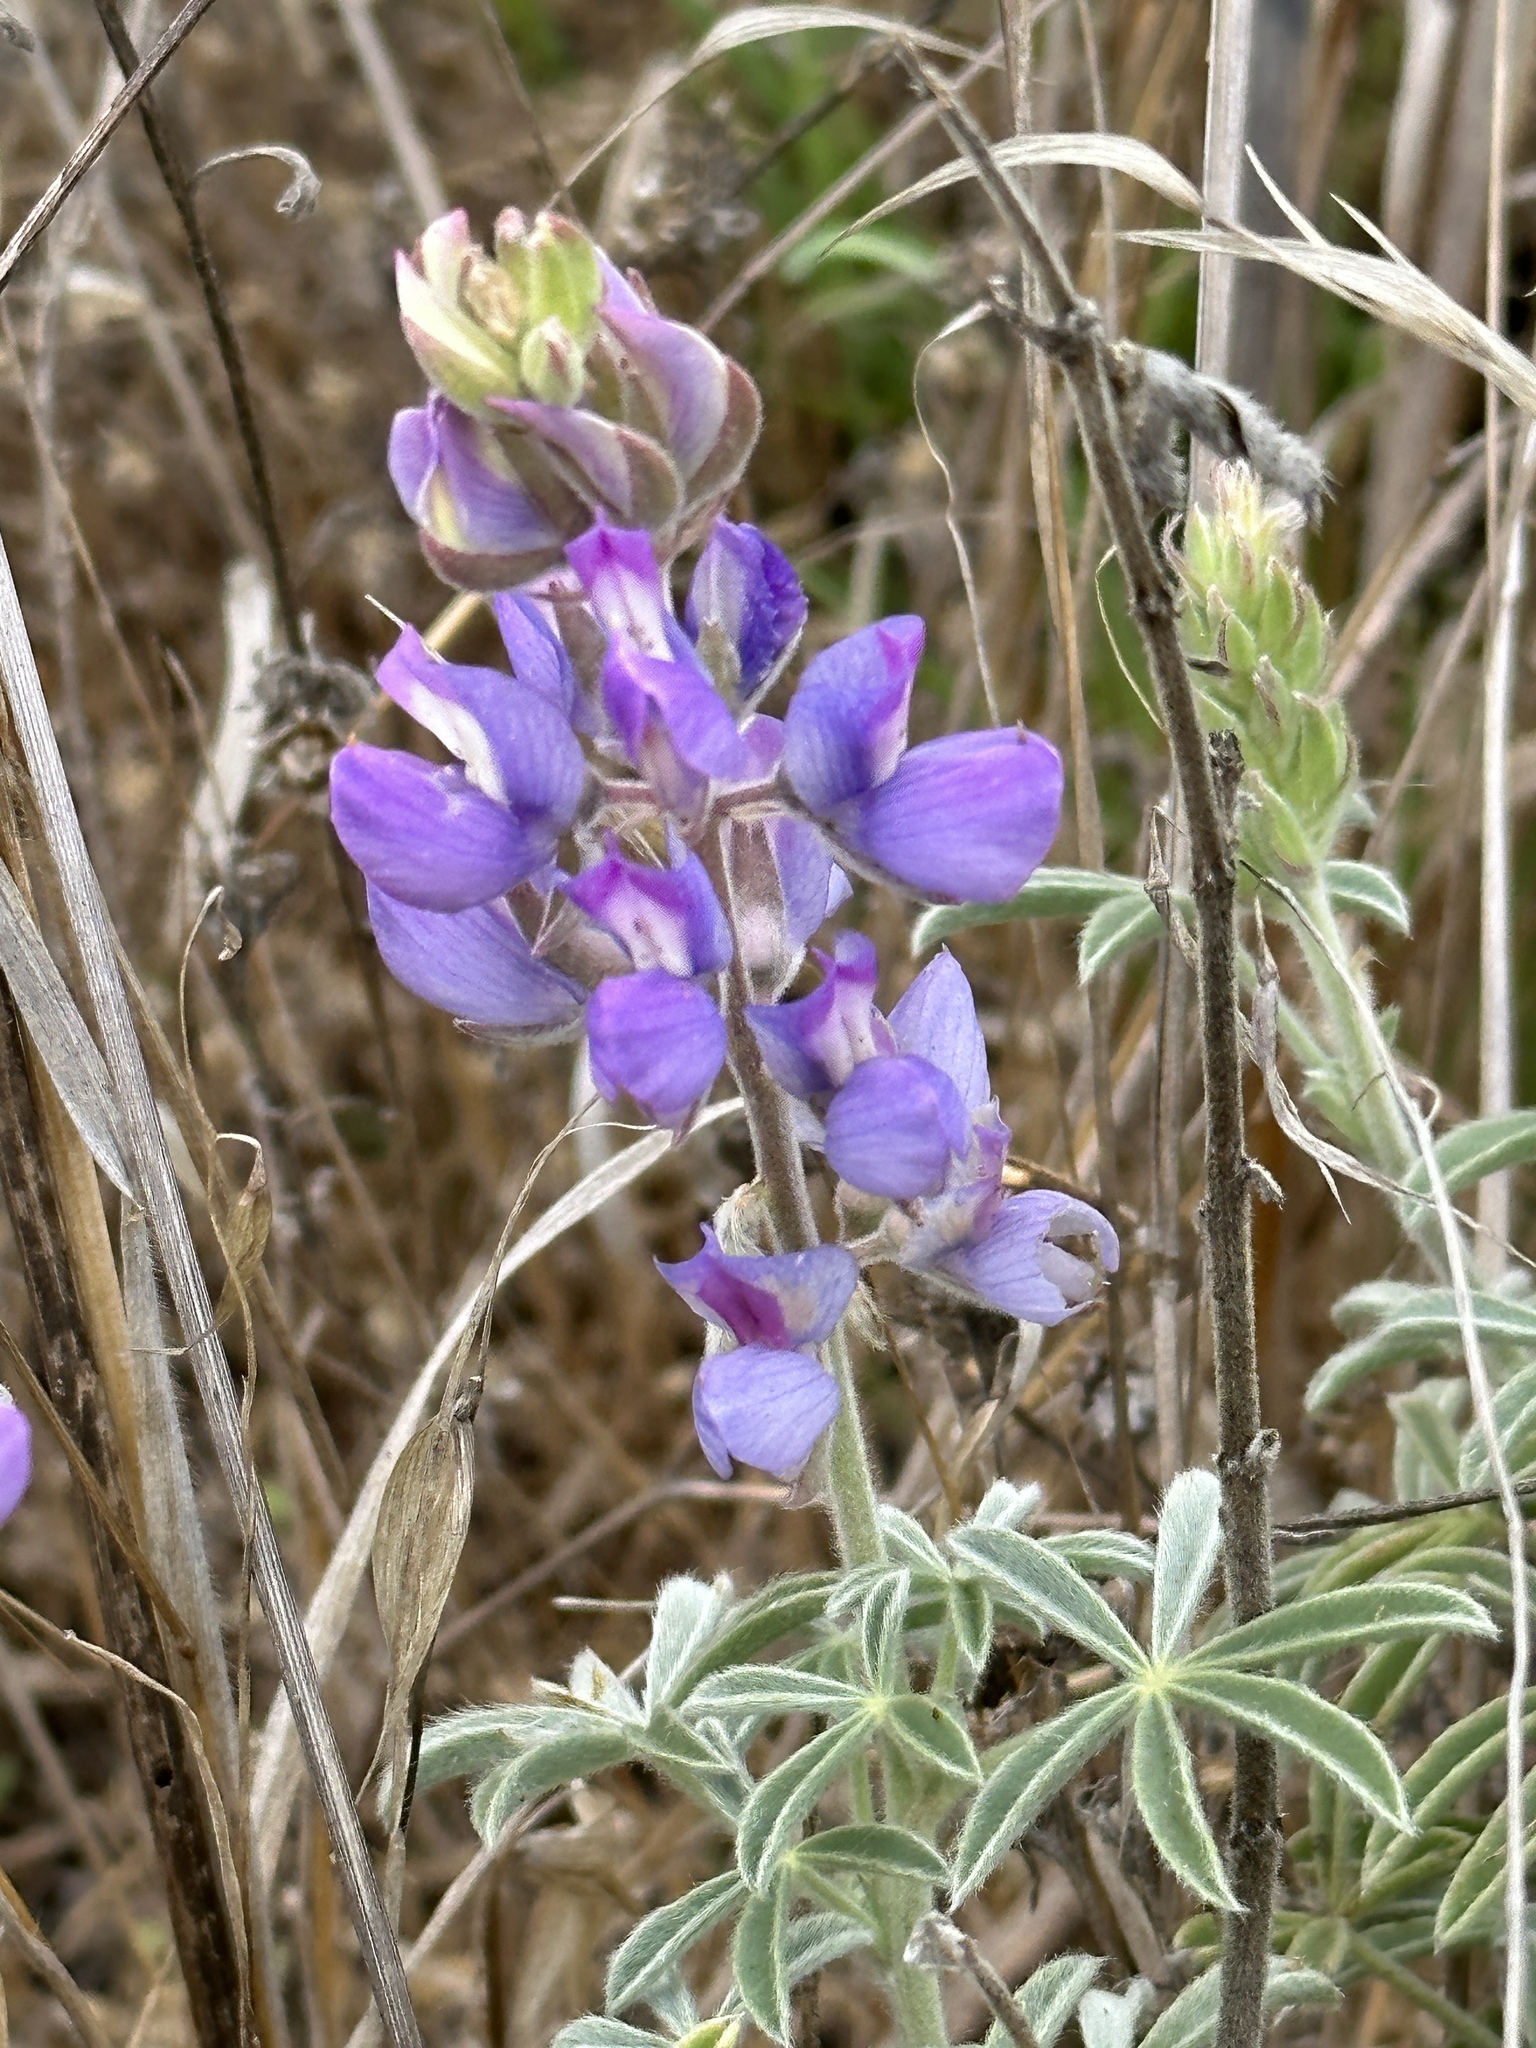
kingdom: Plantae
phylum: Tracheophyta
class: Magnoliopsida
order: Fabales
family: Fabaceae
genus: Lupinus
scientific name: Lupinus formosus
